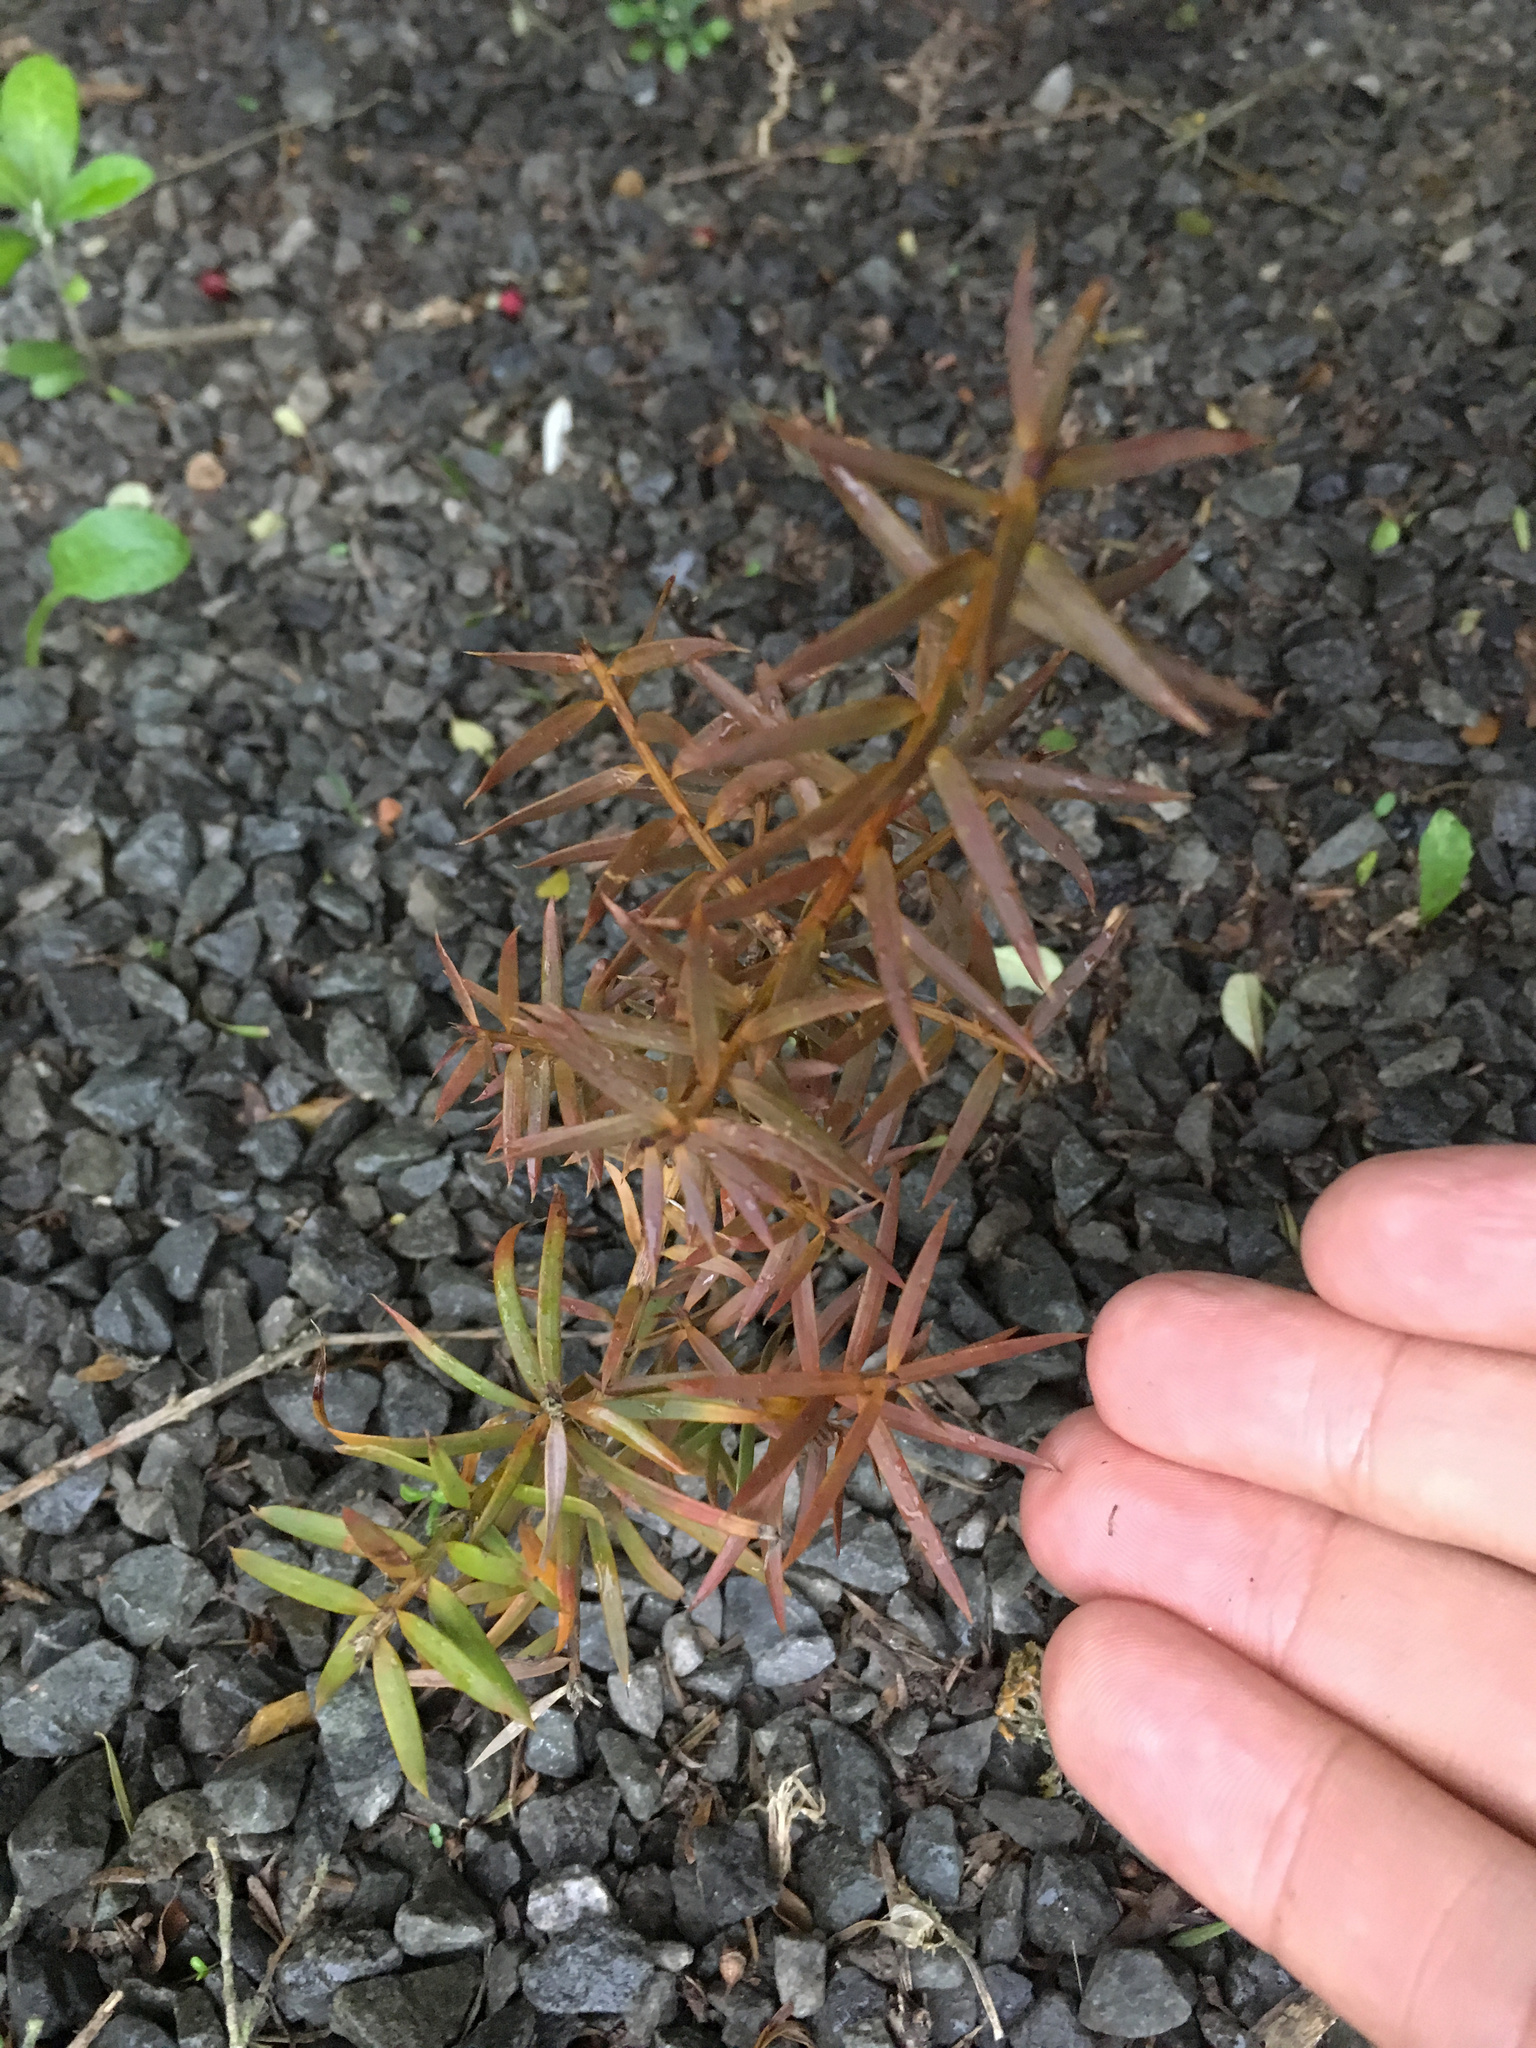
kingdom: Plantae
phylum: Tracheophyta
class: Pinopsida
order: Pinales
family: Podocarpaceae
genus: Podocarpus
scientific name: Podocarpus totara
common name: Totara
